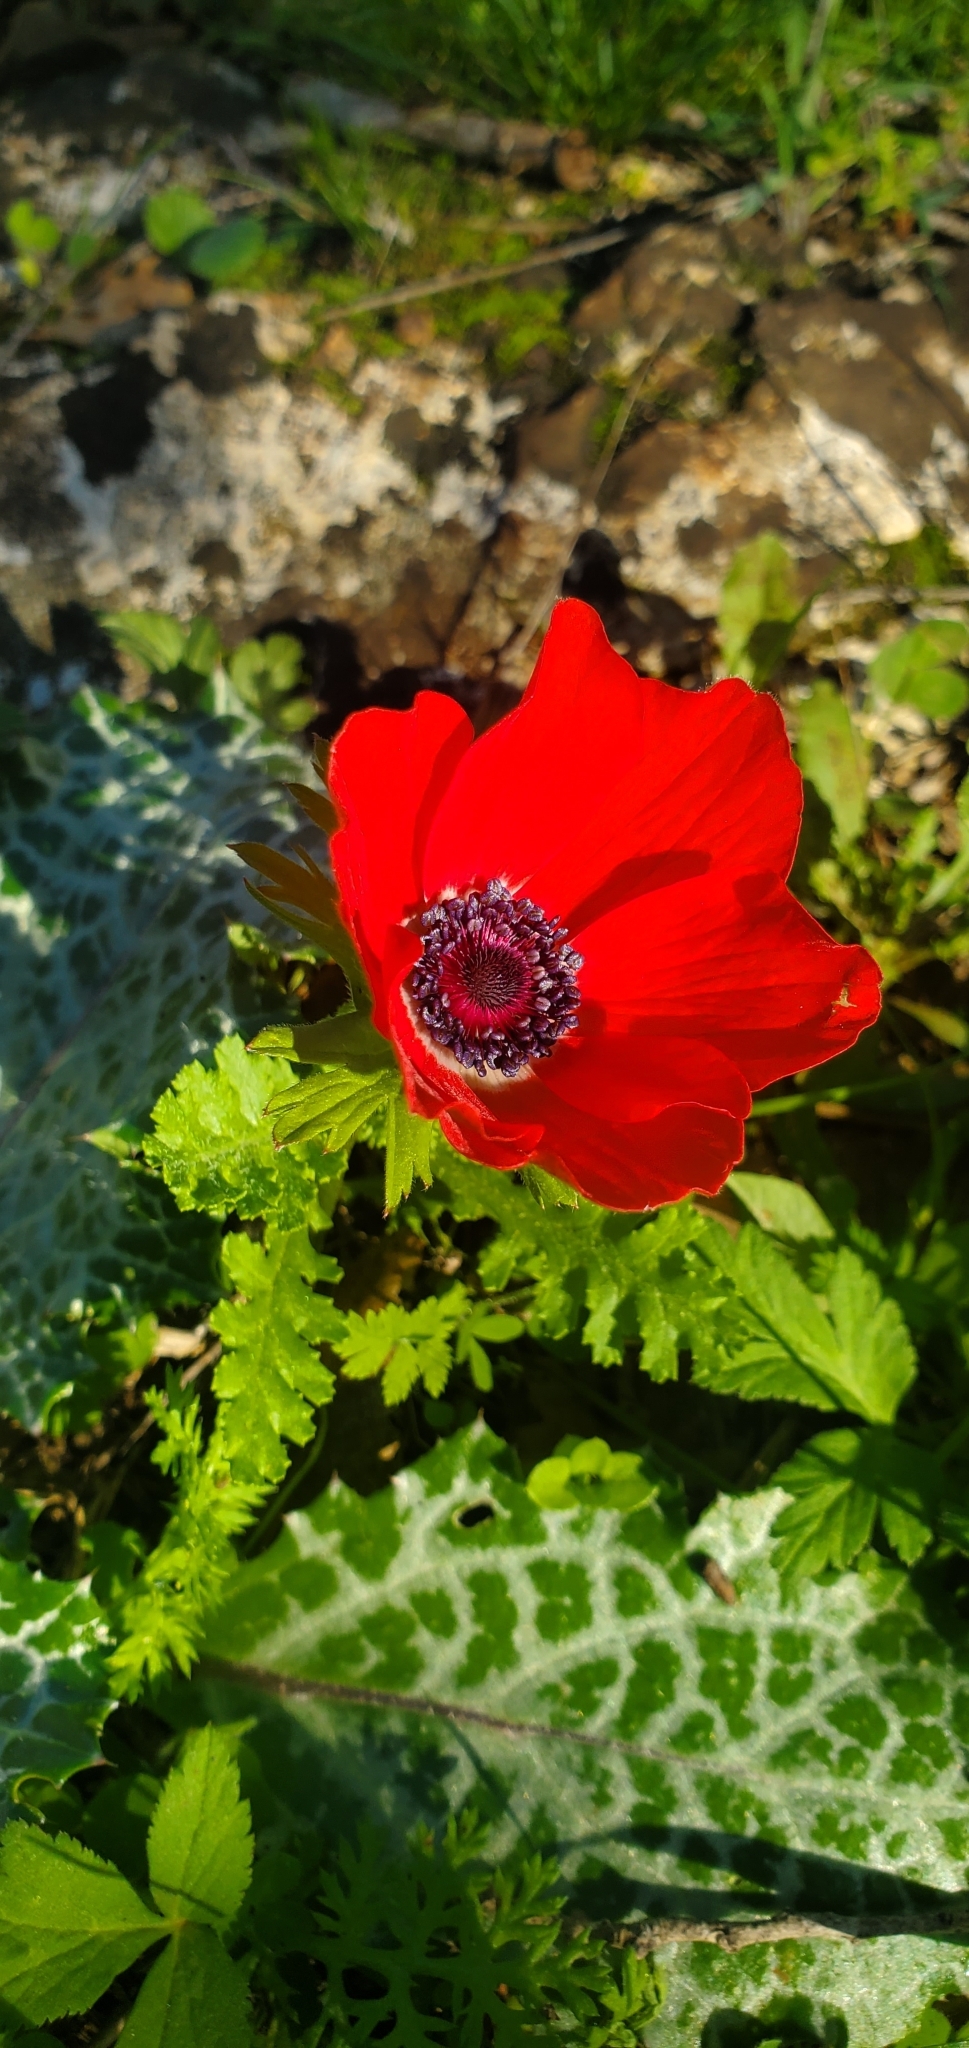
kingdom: Plantae
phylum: Tracheophyta
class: Magnoliopsida
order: Ranunculales
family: Ranunculaceae
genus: Anemone
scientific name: Anemone coronaria
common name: Poppy anemone
